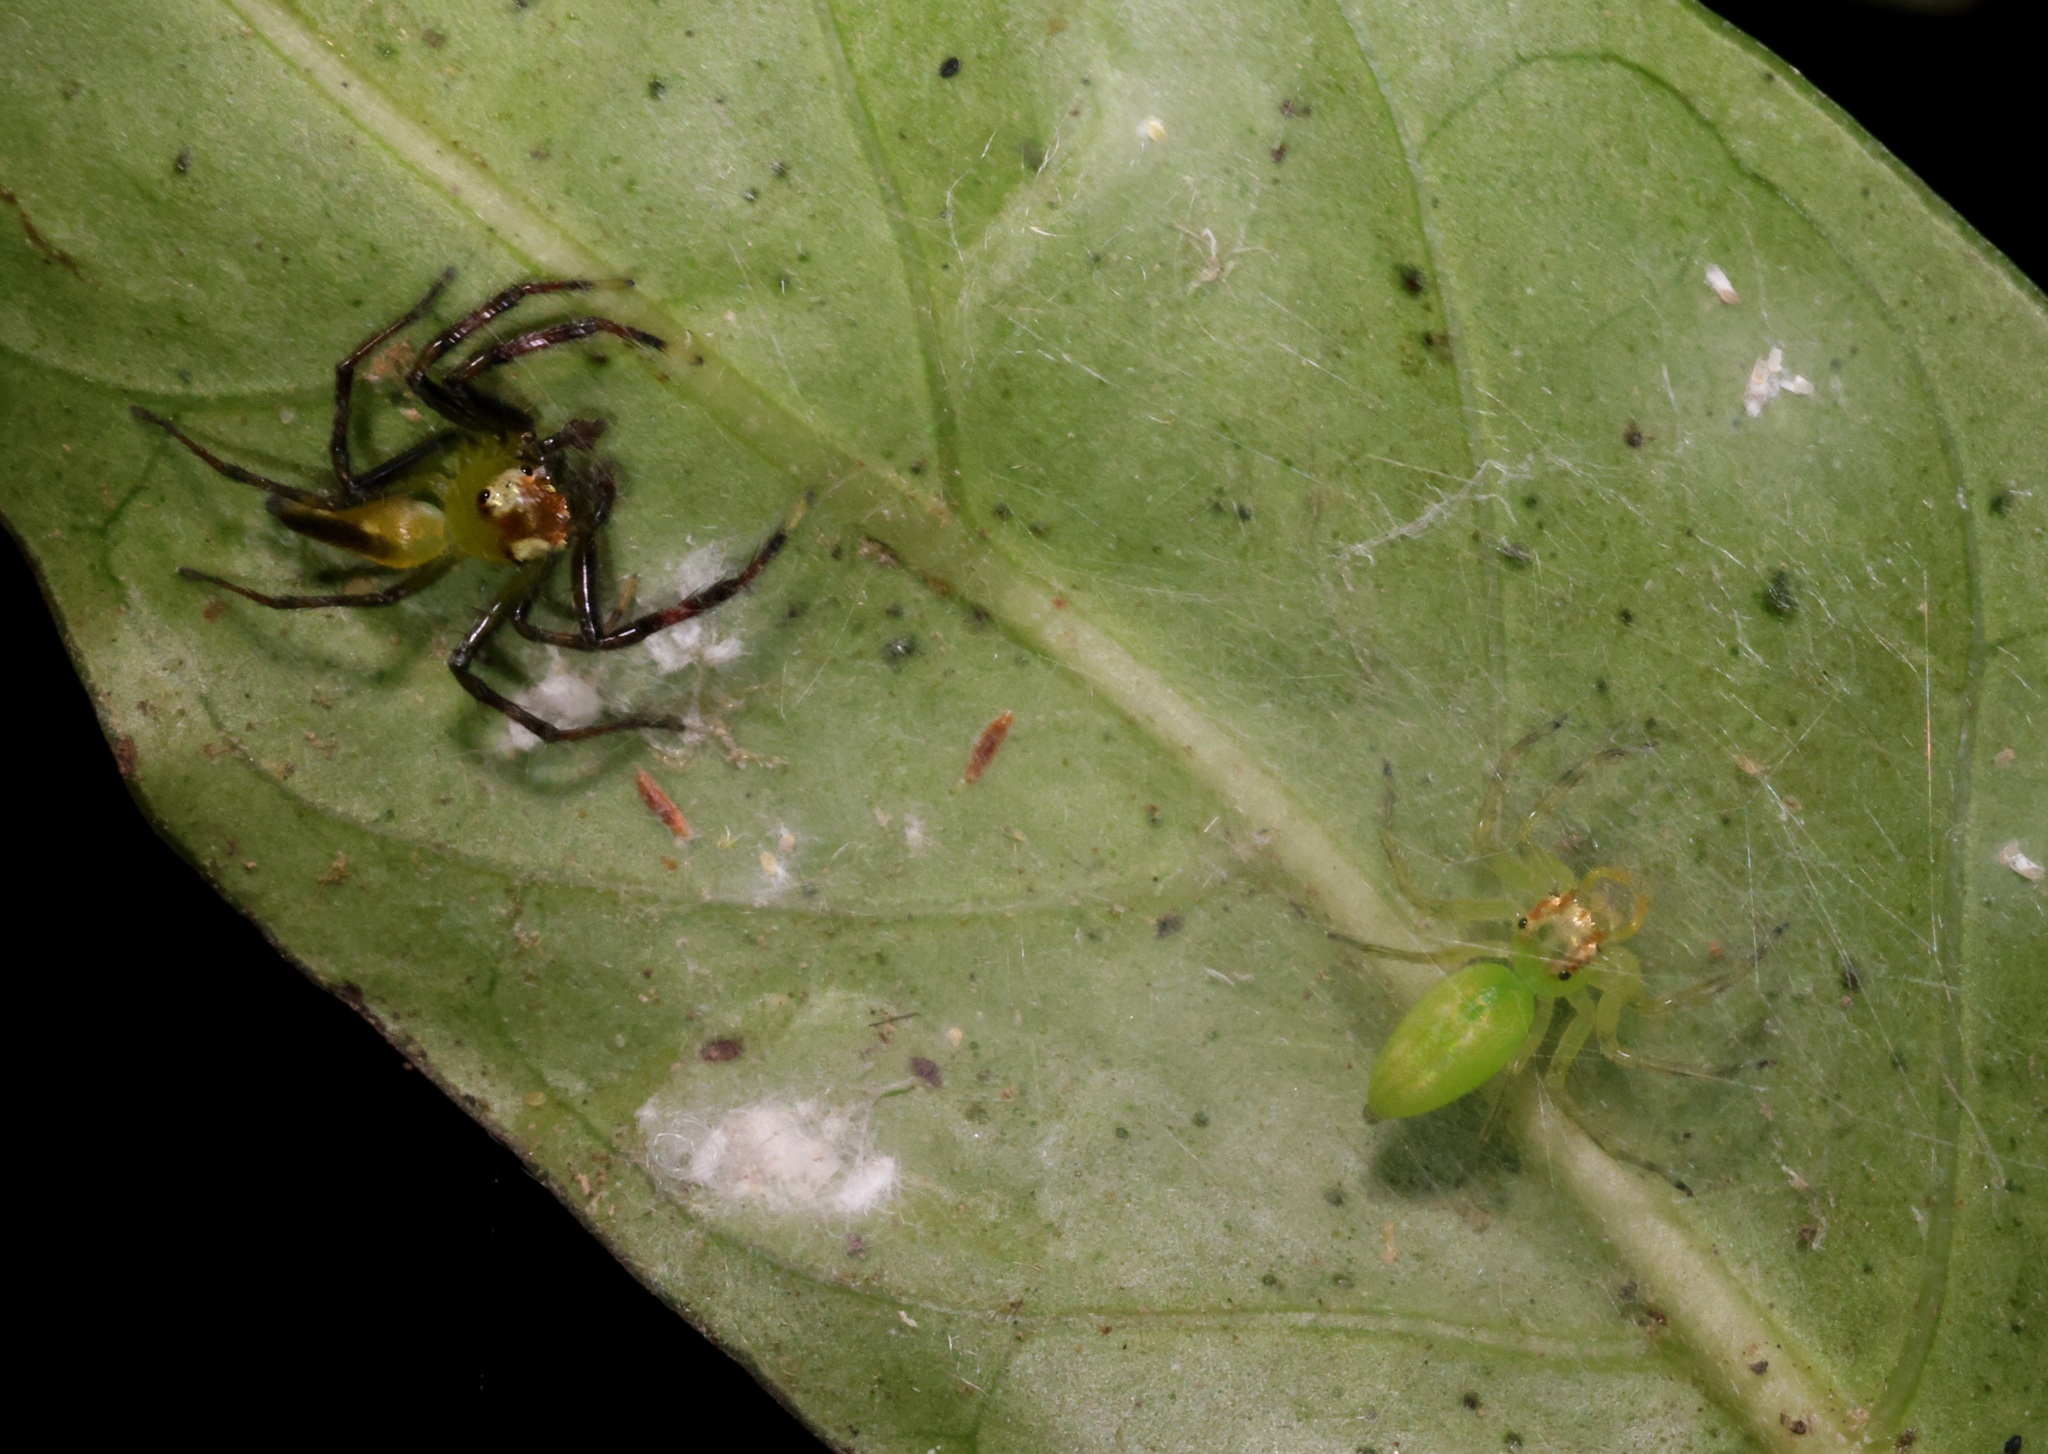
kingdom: Animalia
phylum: Arthropoda
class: Arachnida
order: Araneae
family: Salticidae
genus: Epeus
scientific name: Epeus glorius
